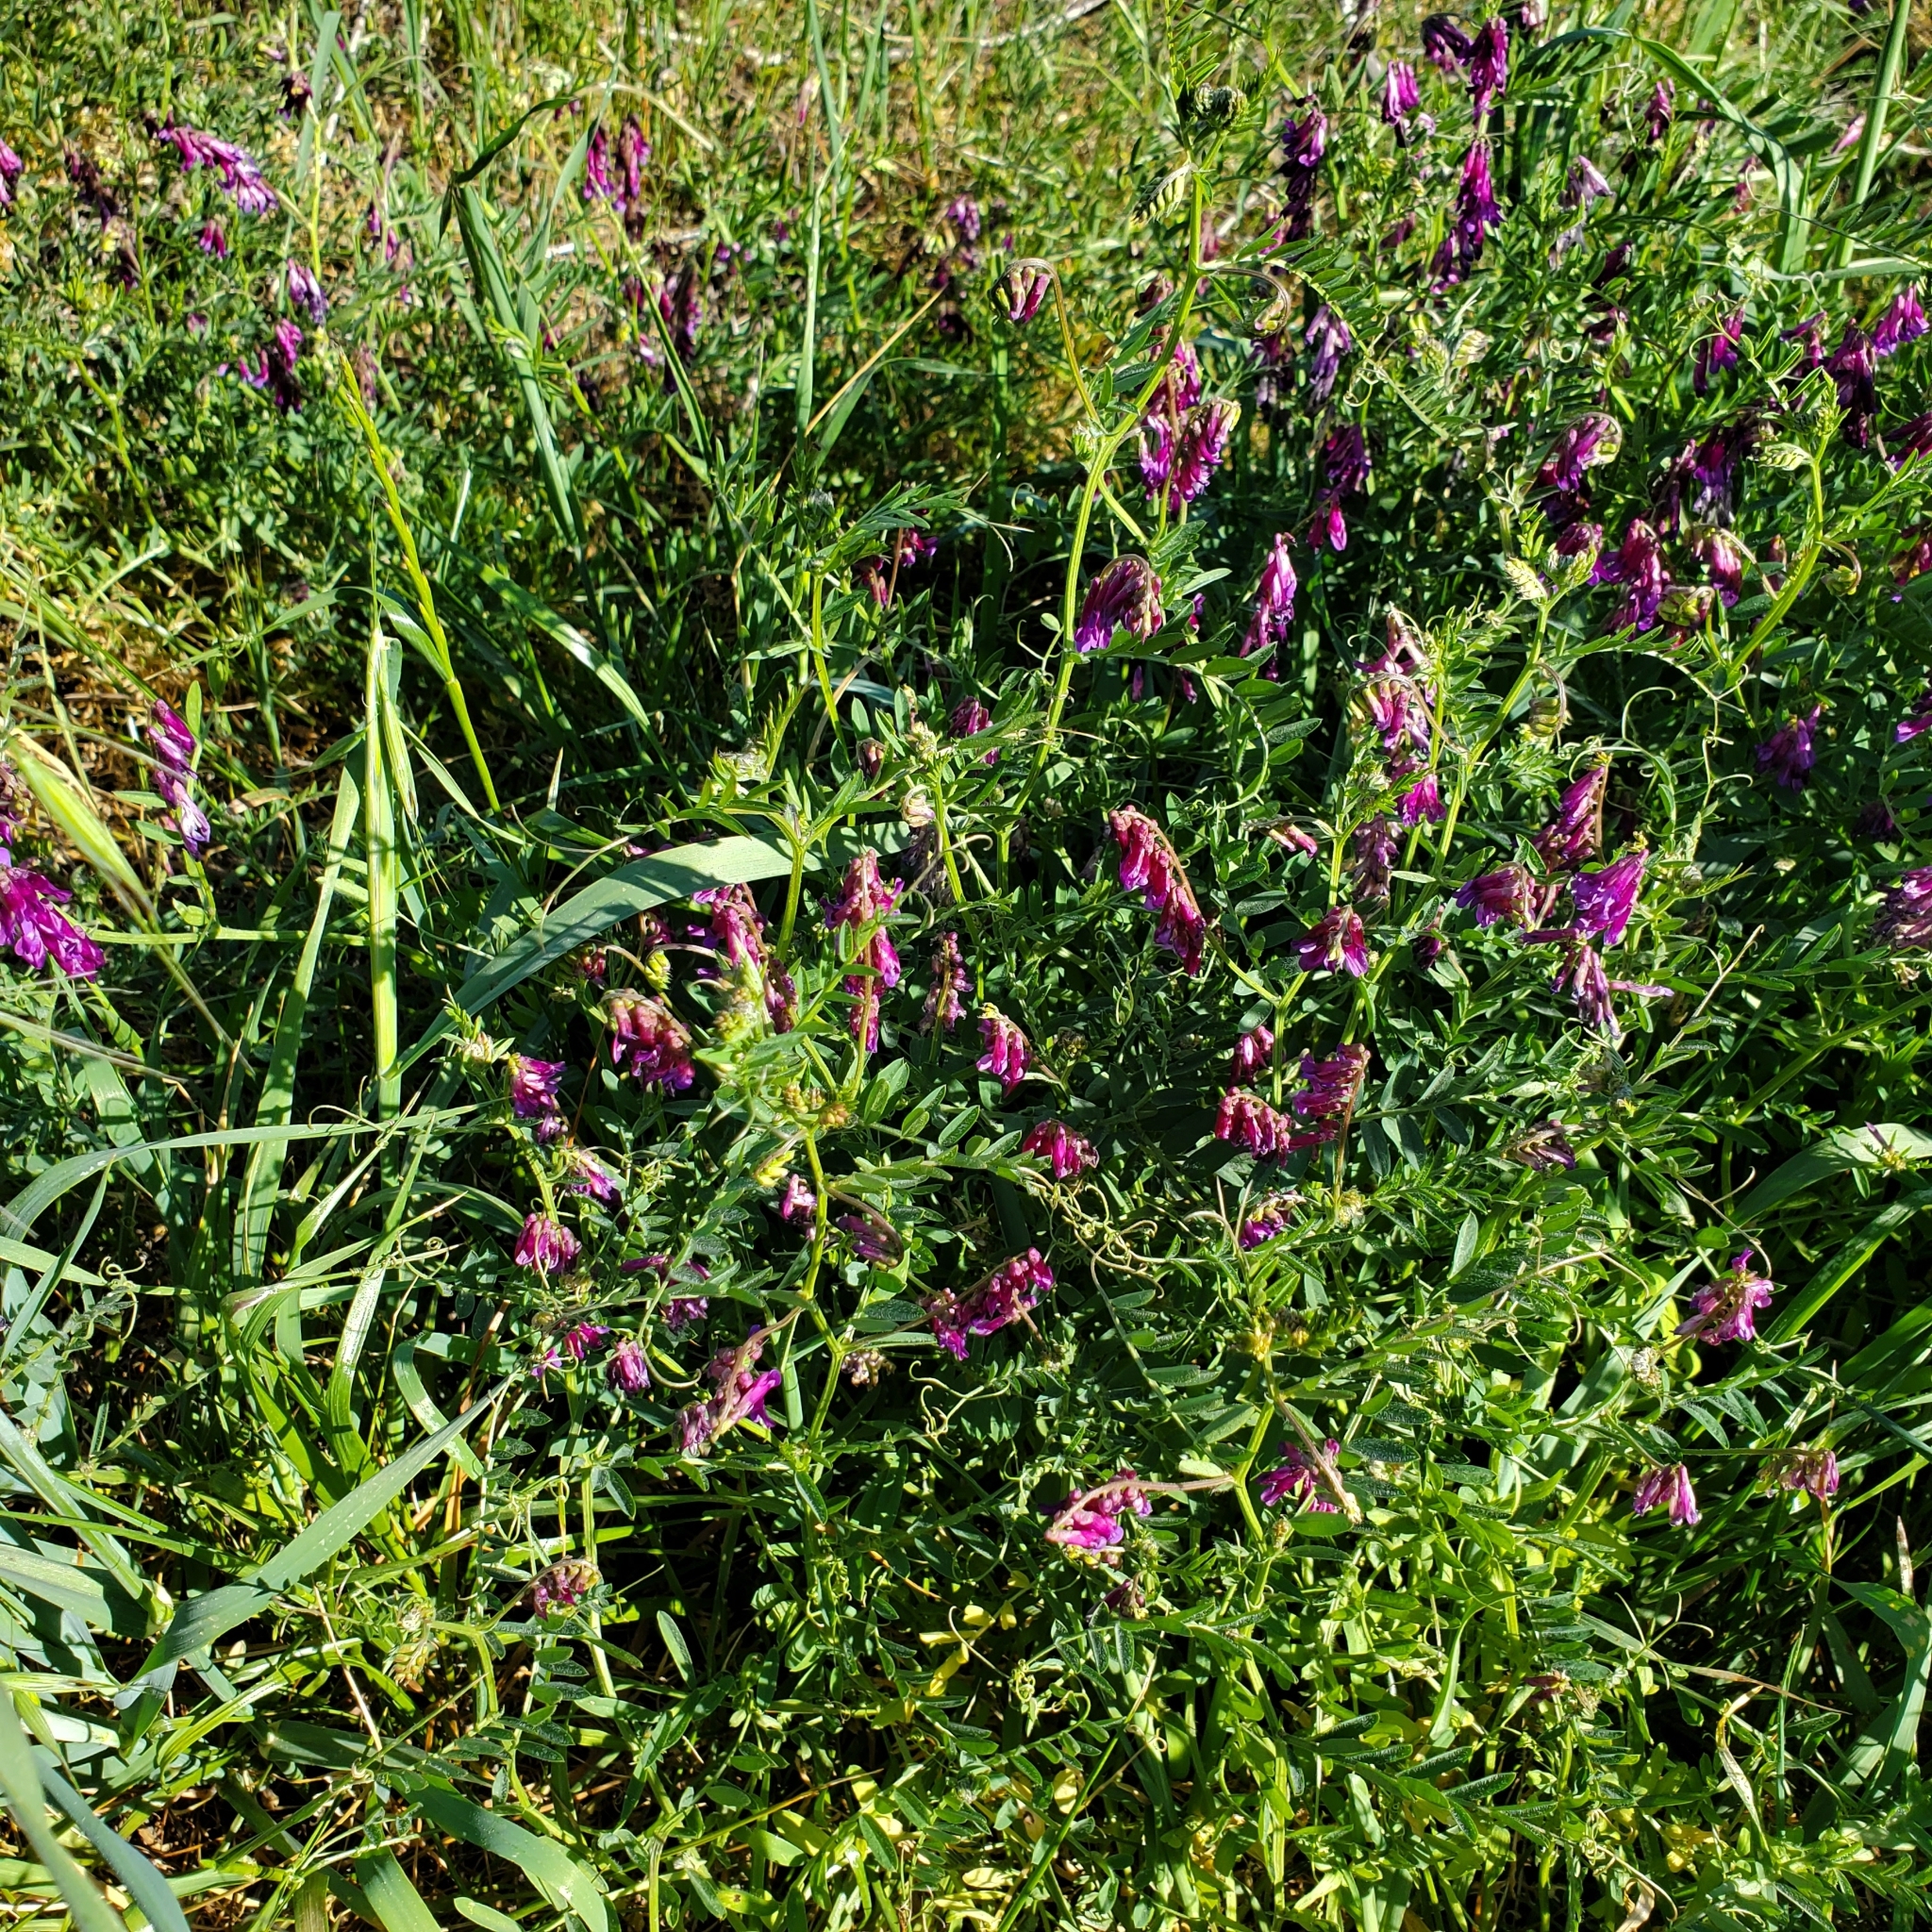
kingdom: Plantae
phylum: Tracheophyta
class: Magnoliopsida
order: Fabales
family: Fabaceae
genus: Vicia
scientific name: Vicia villosa
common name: Fodder vetch
